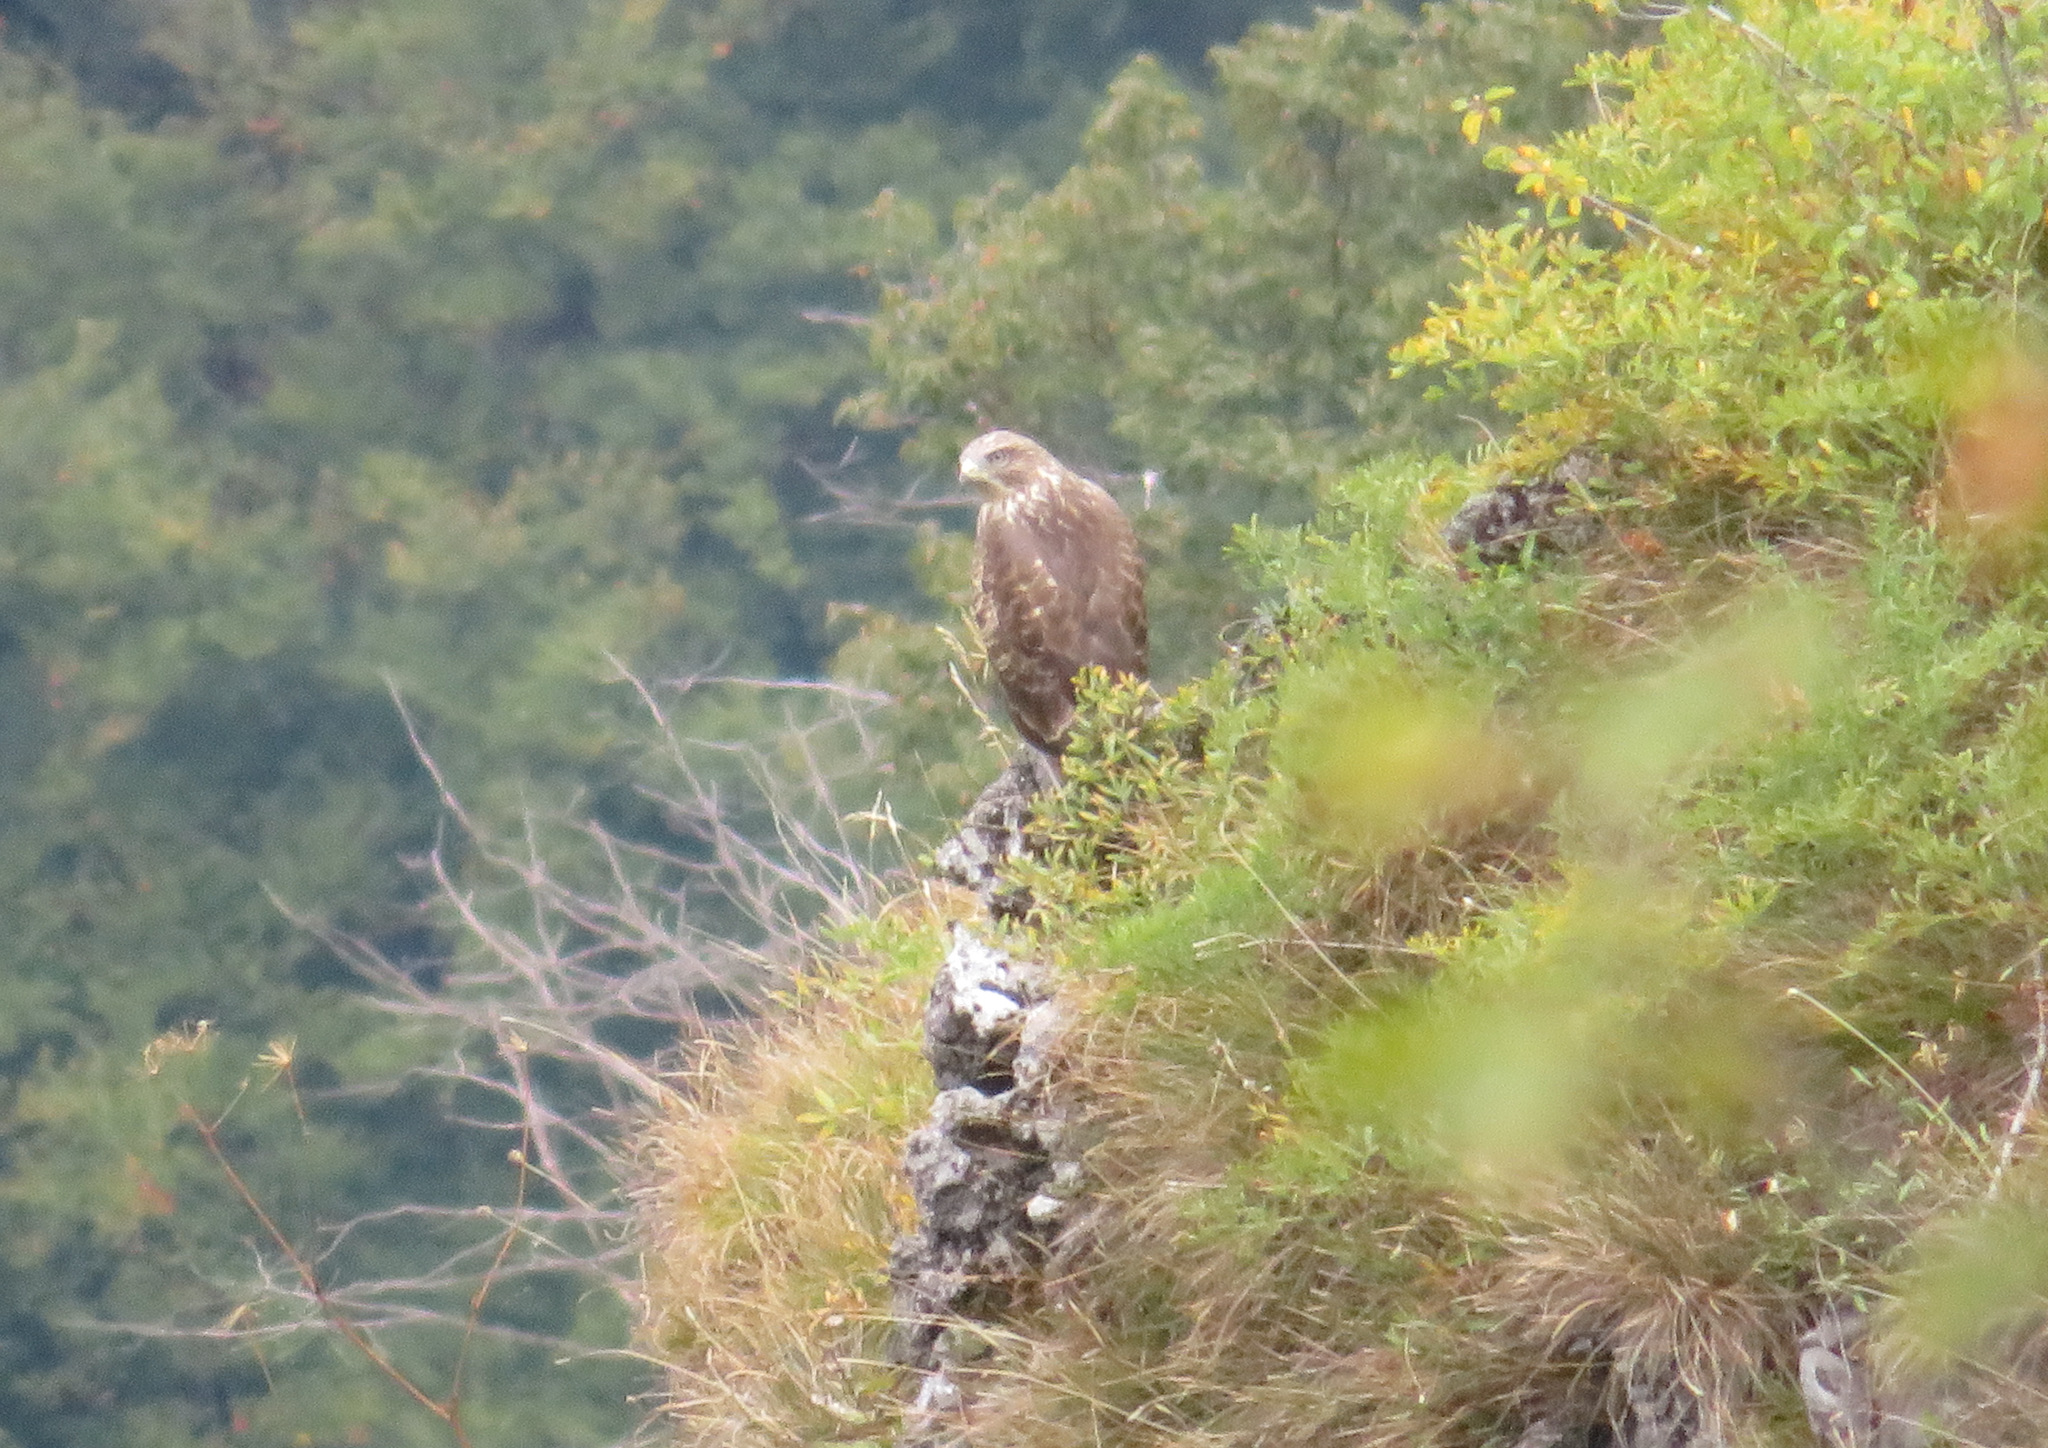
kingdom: Animalia
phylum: Chordata
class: Aves
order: Accipitriformes
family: Accipitridae
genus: Buteo
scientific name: Buteo buteo
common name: Common buzzard
